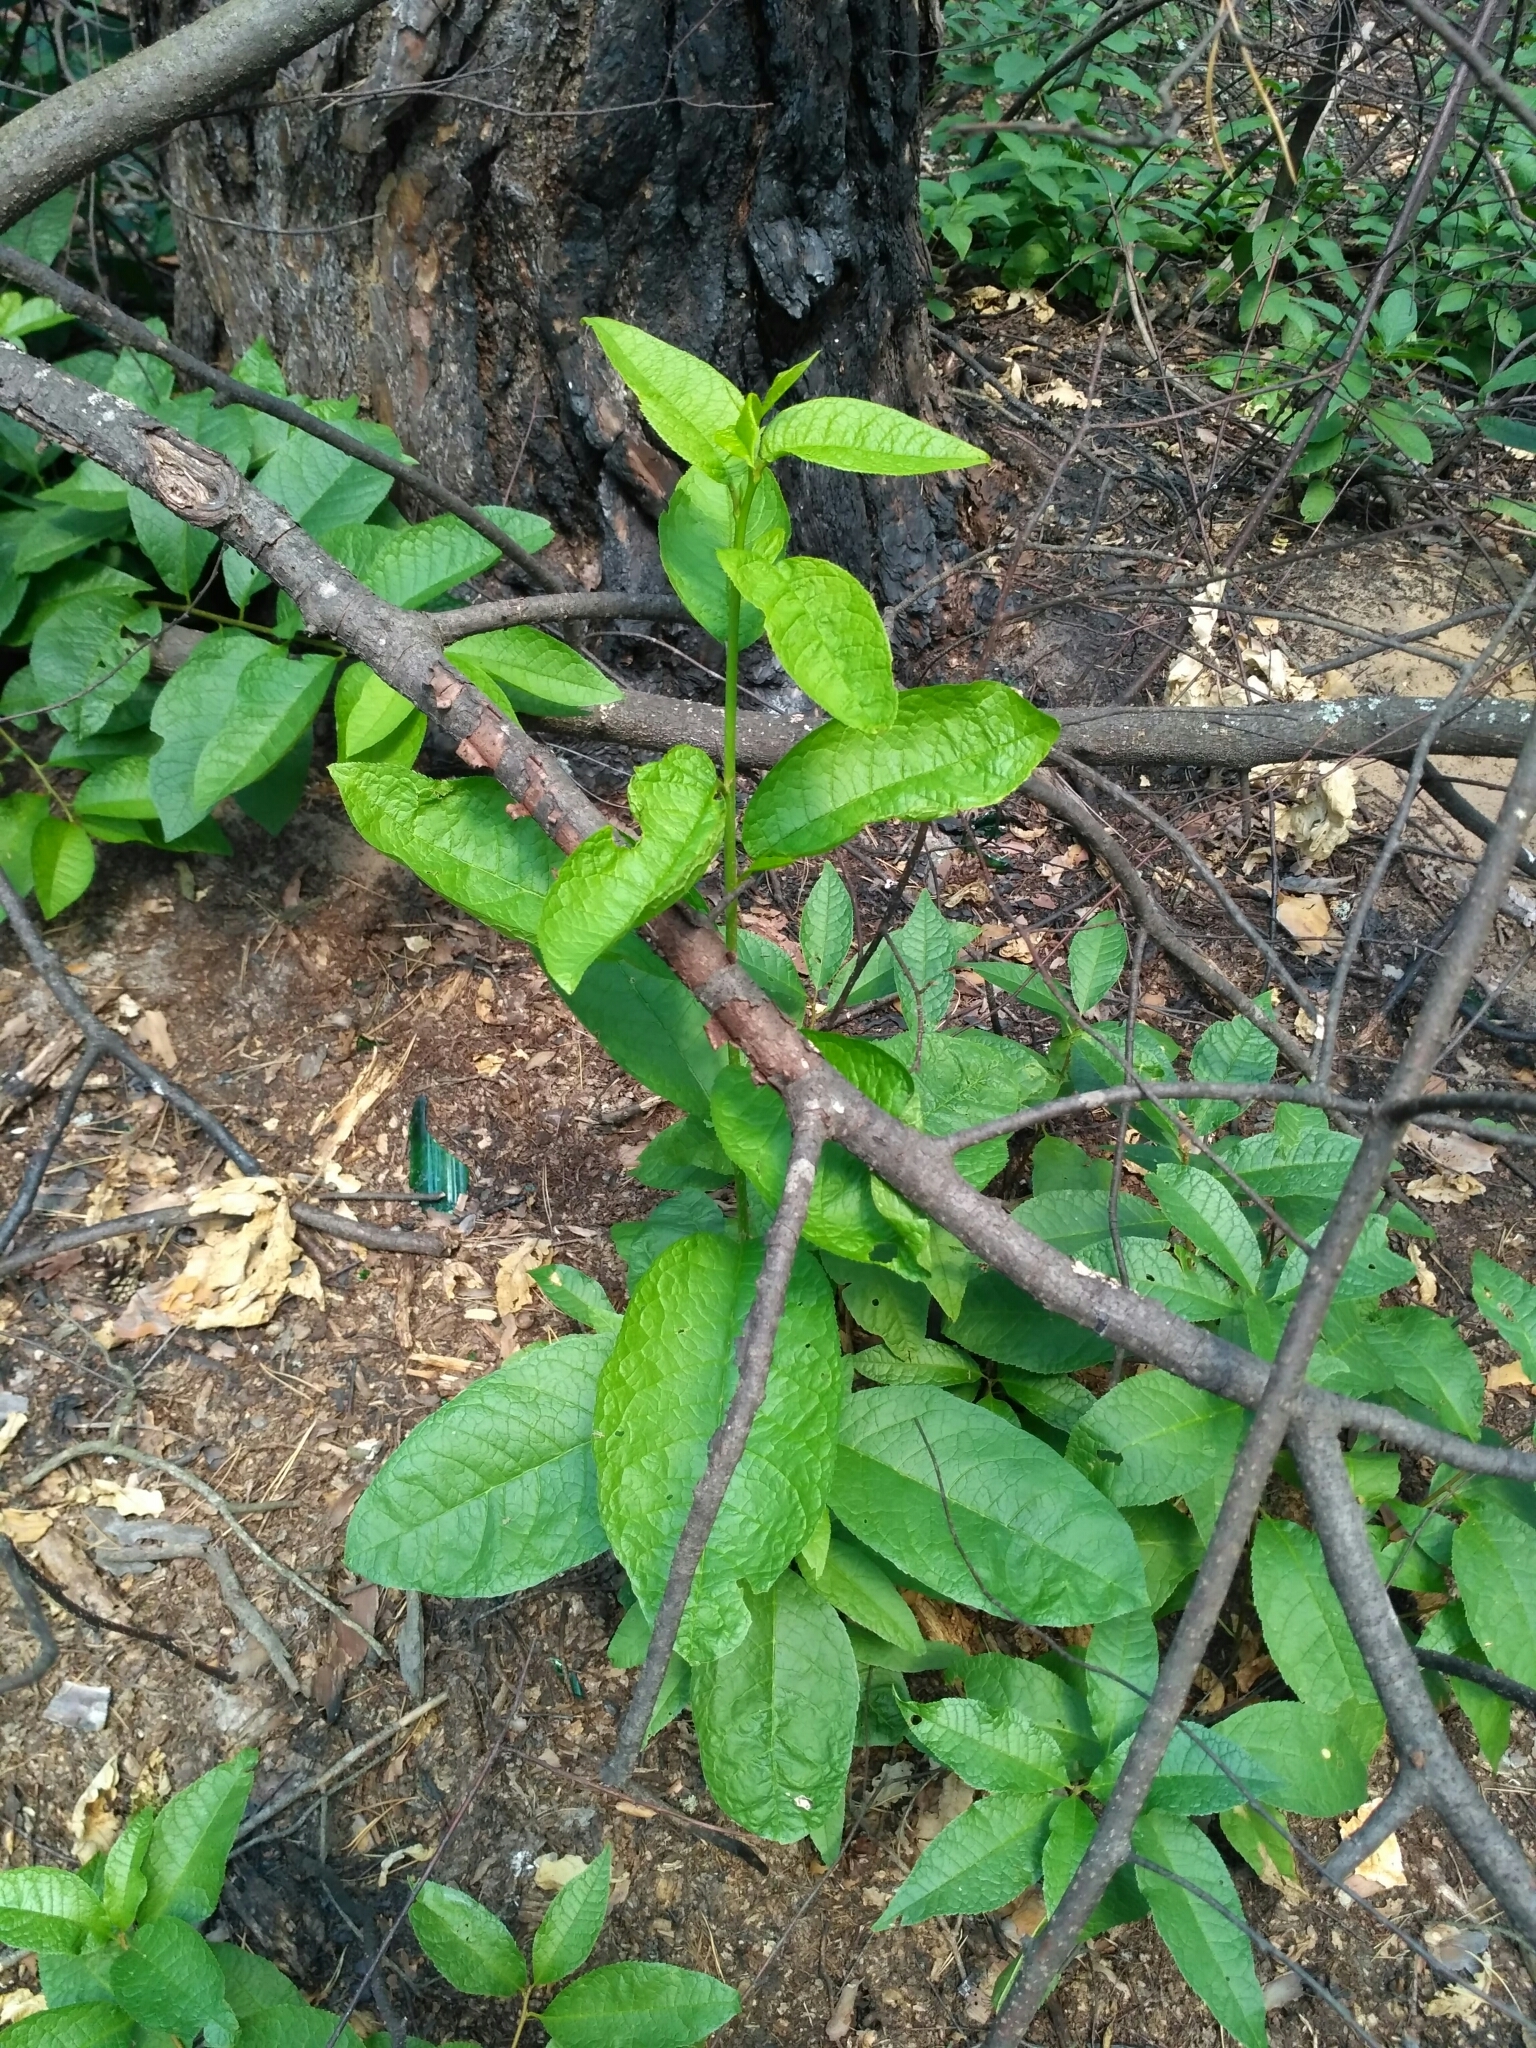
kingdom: Plantae
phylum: Tracheophyta
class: Magnoliopsida
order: Rosales
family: Rosaceae
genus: Prunus
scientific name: Prunus padus
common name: Bird cherry
